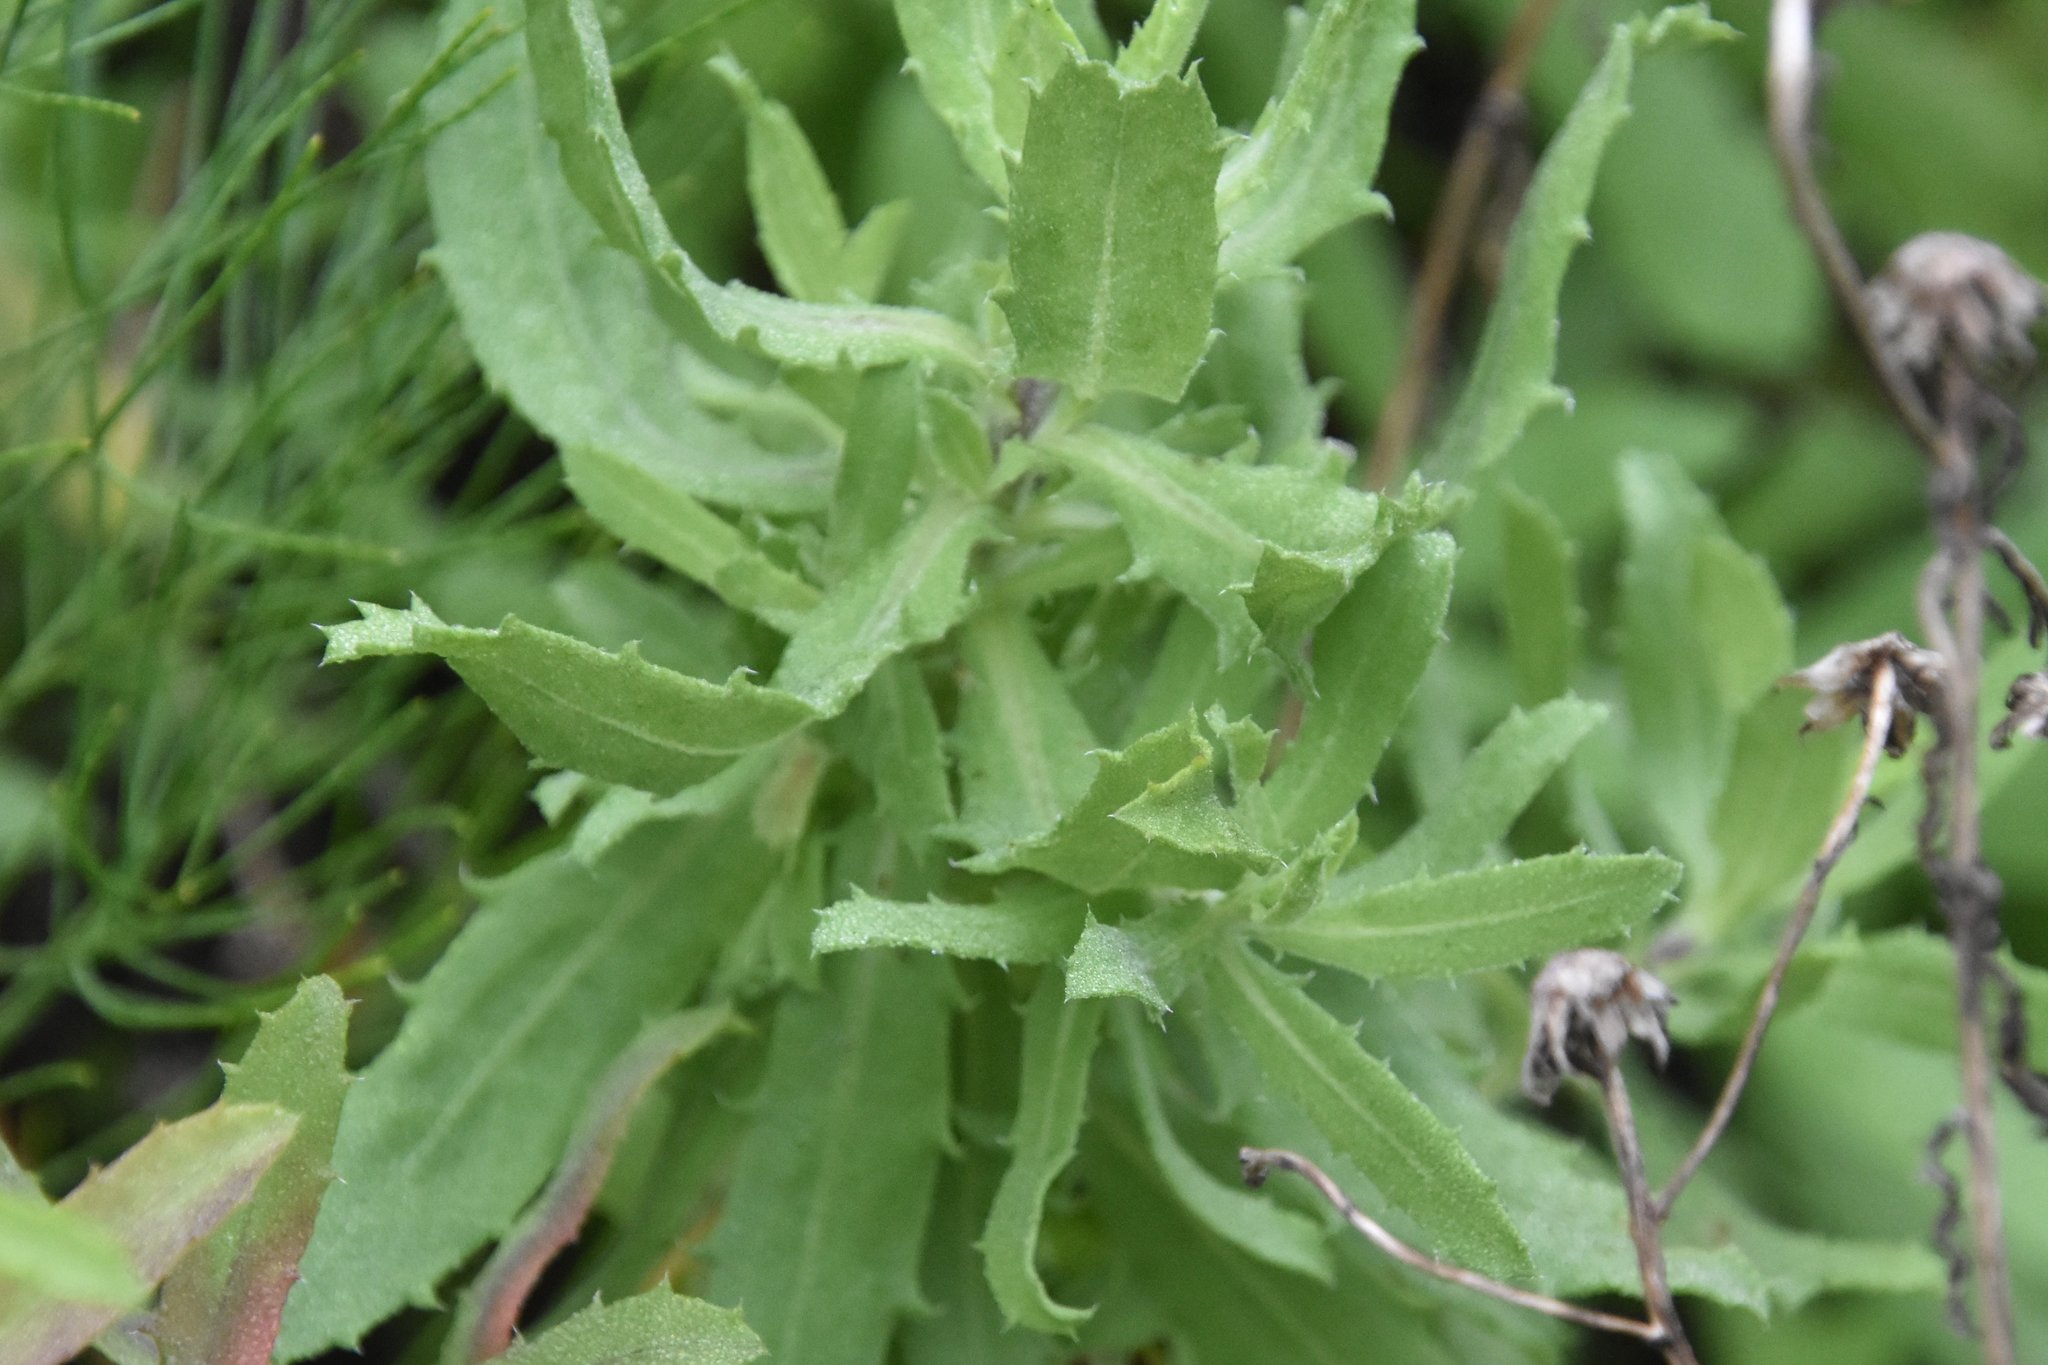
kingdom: Plantae
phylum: Tracheophyta
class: Magnoliopsida
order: Asterales
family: Asteraceae
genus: Rayjacksonia
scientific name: Rayjacksonia phyllocephala
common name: Gulf coast camphor daisy
